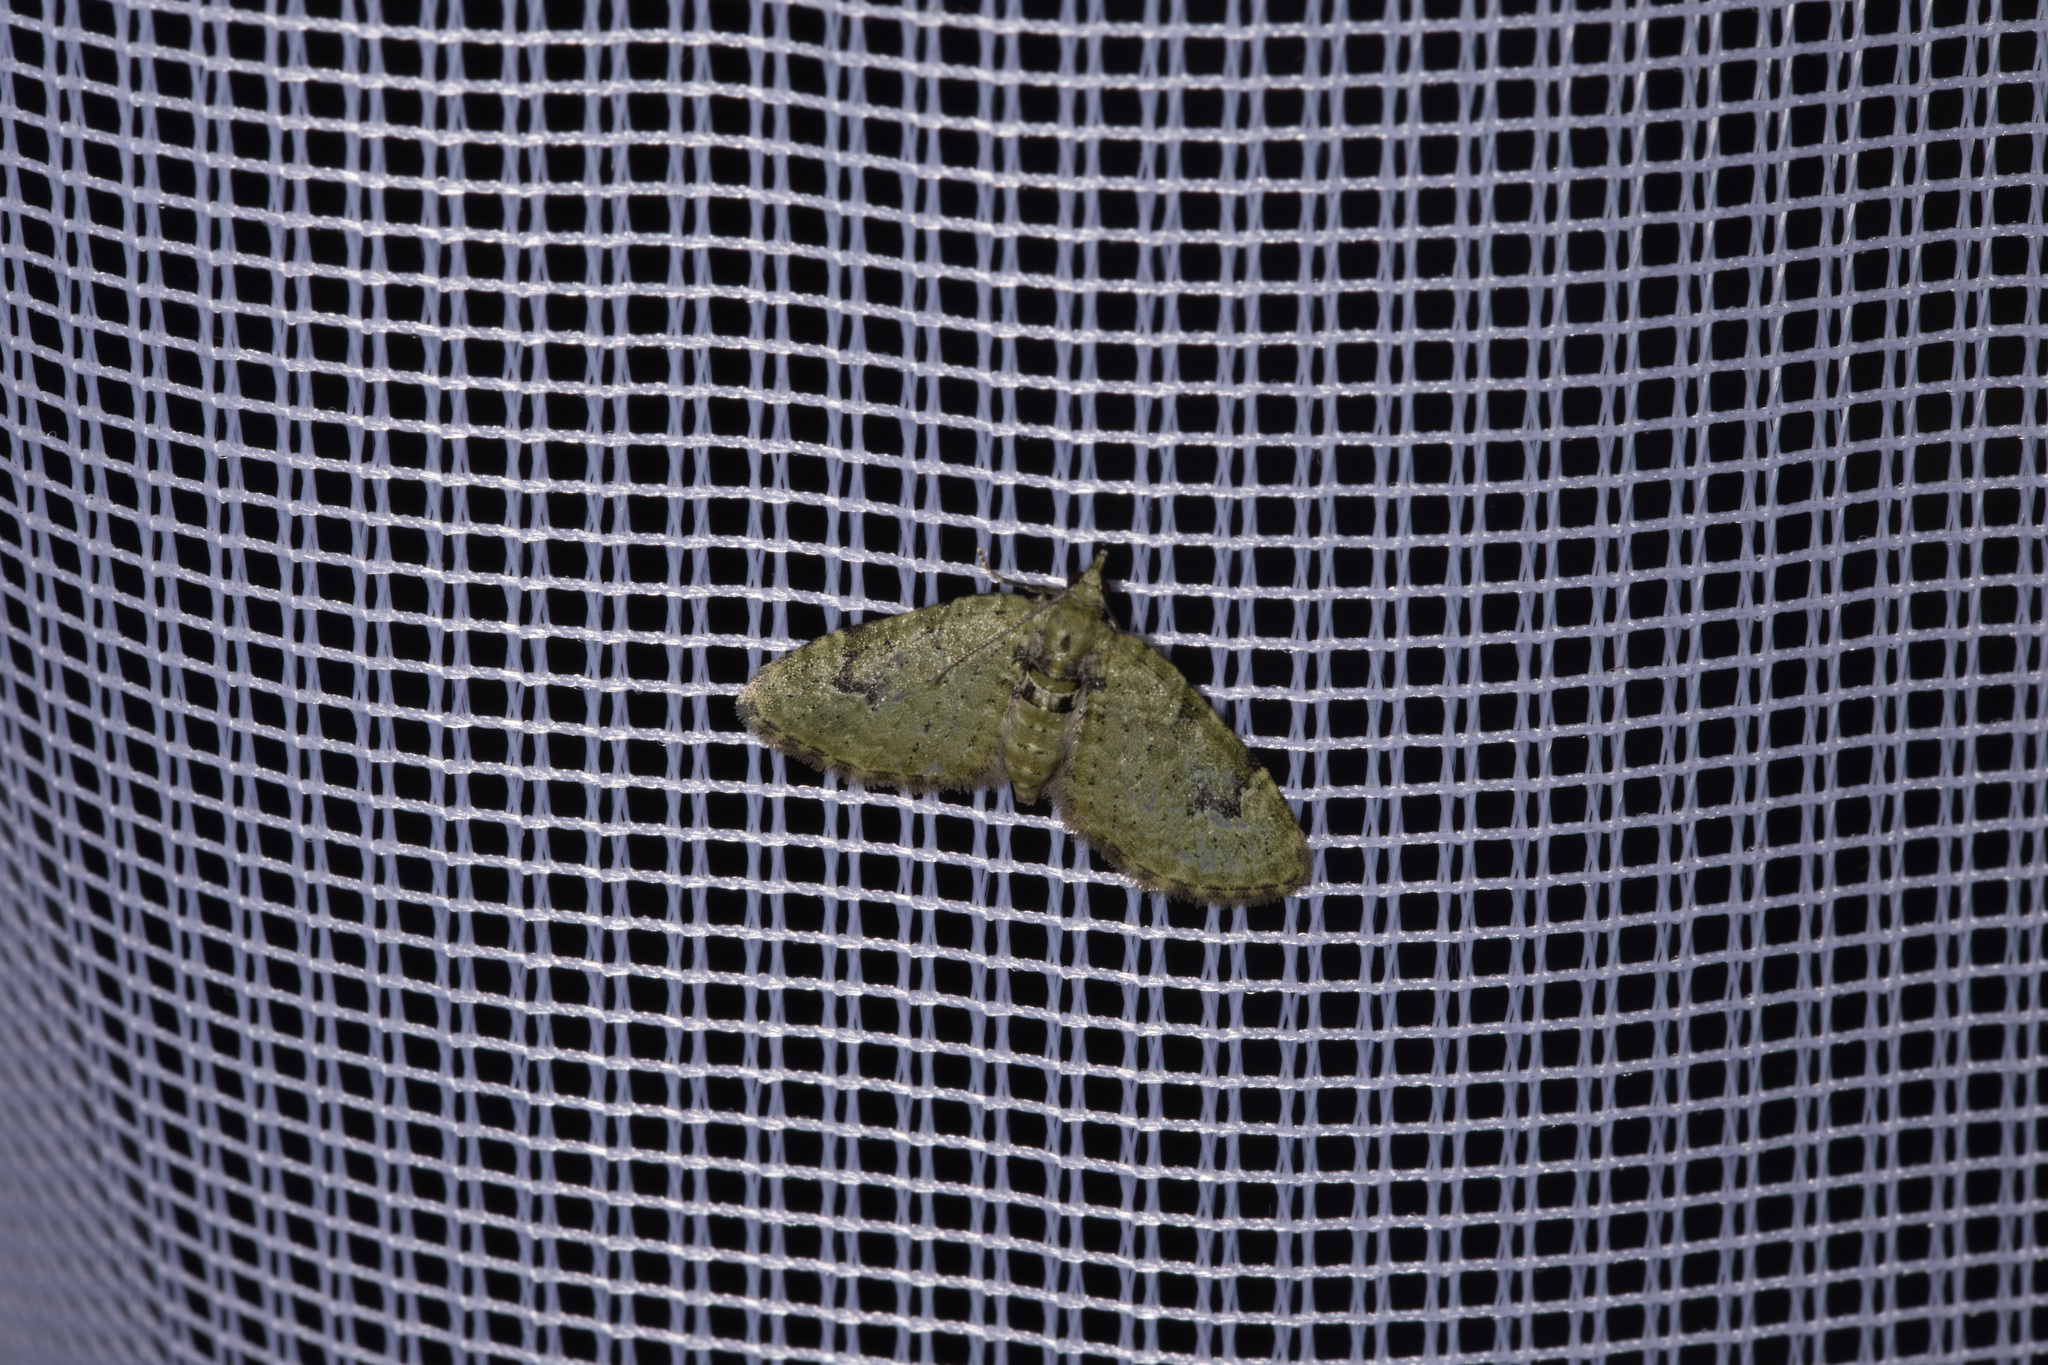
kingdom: Animalia
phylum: Arthropoda
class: Insecta
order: Lepidoptera
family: Geometridae
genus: Chloroclystis
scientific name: Chloroclystis v-ata
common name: V-pug
